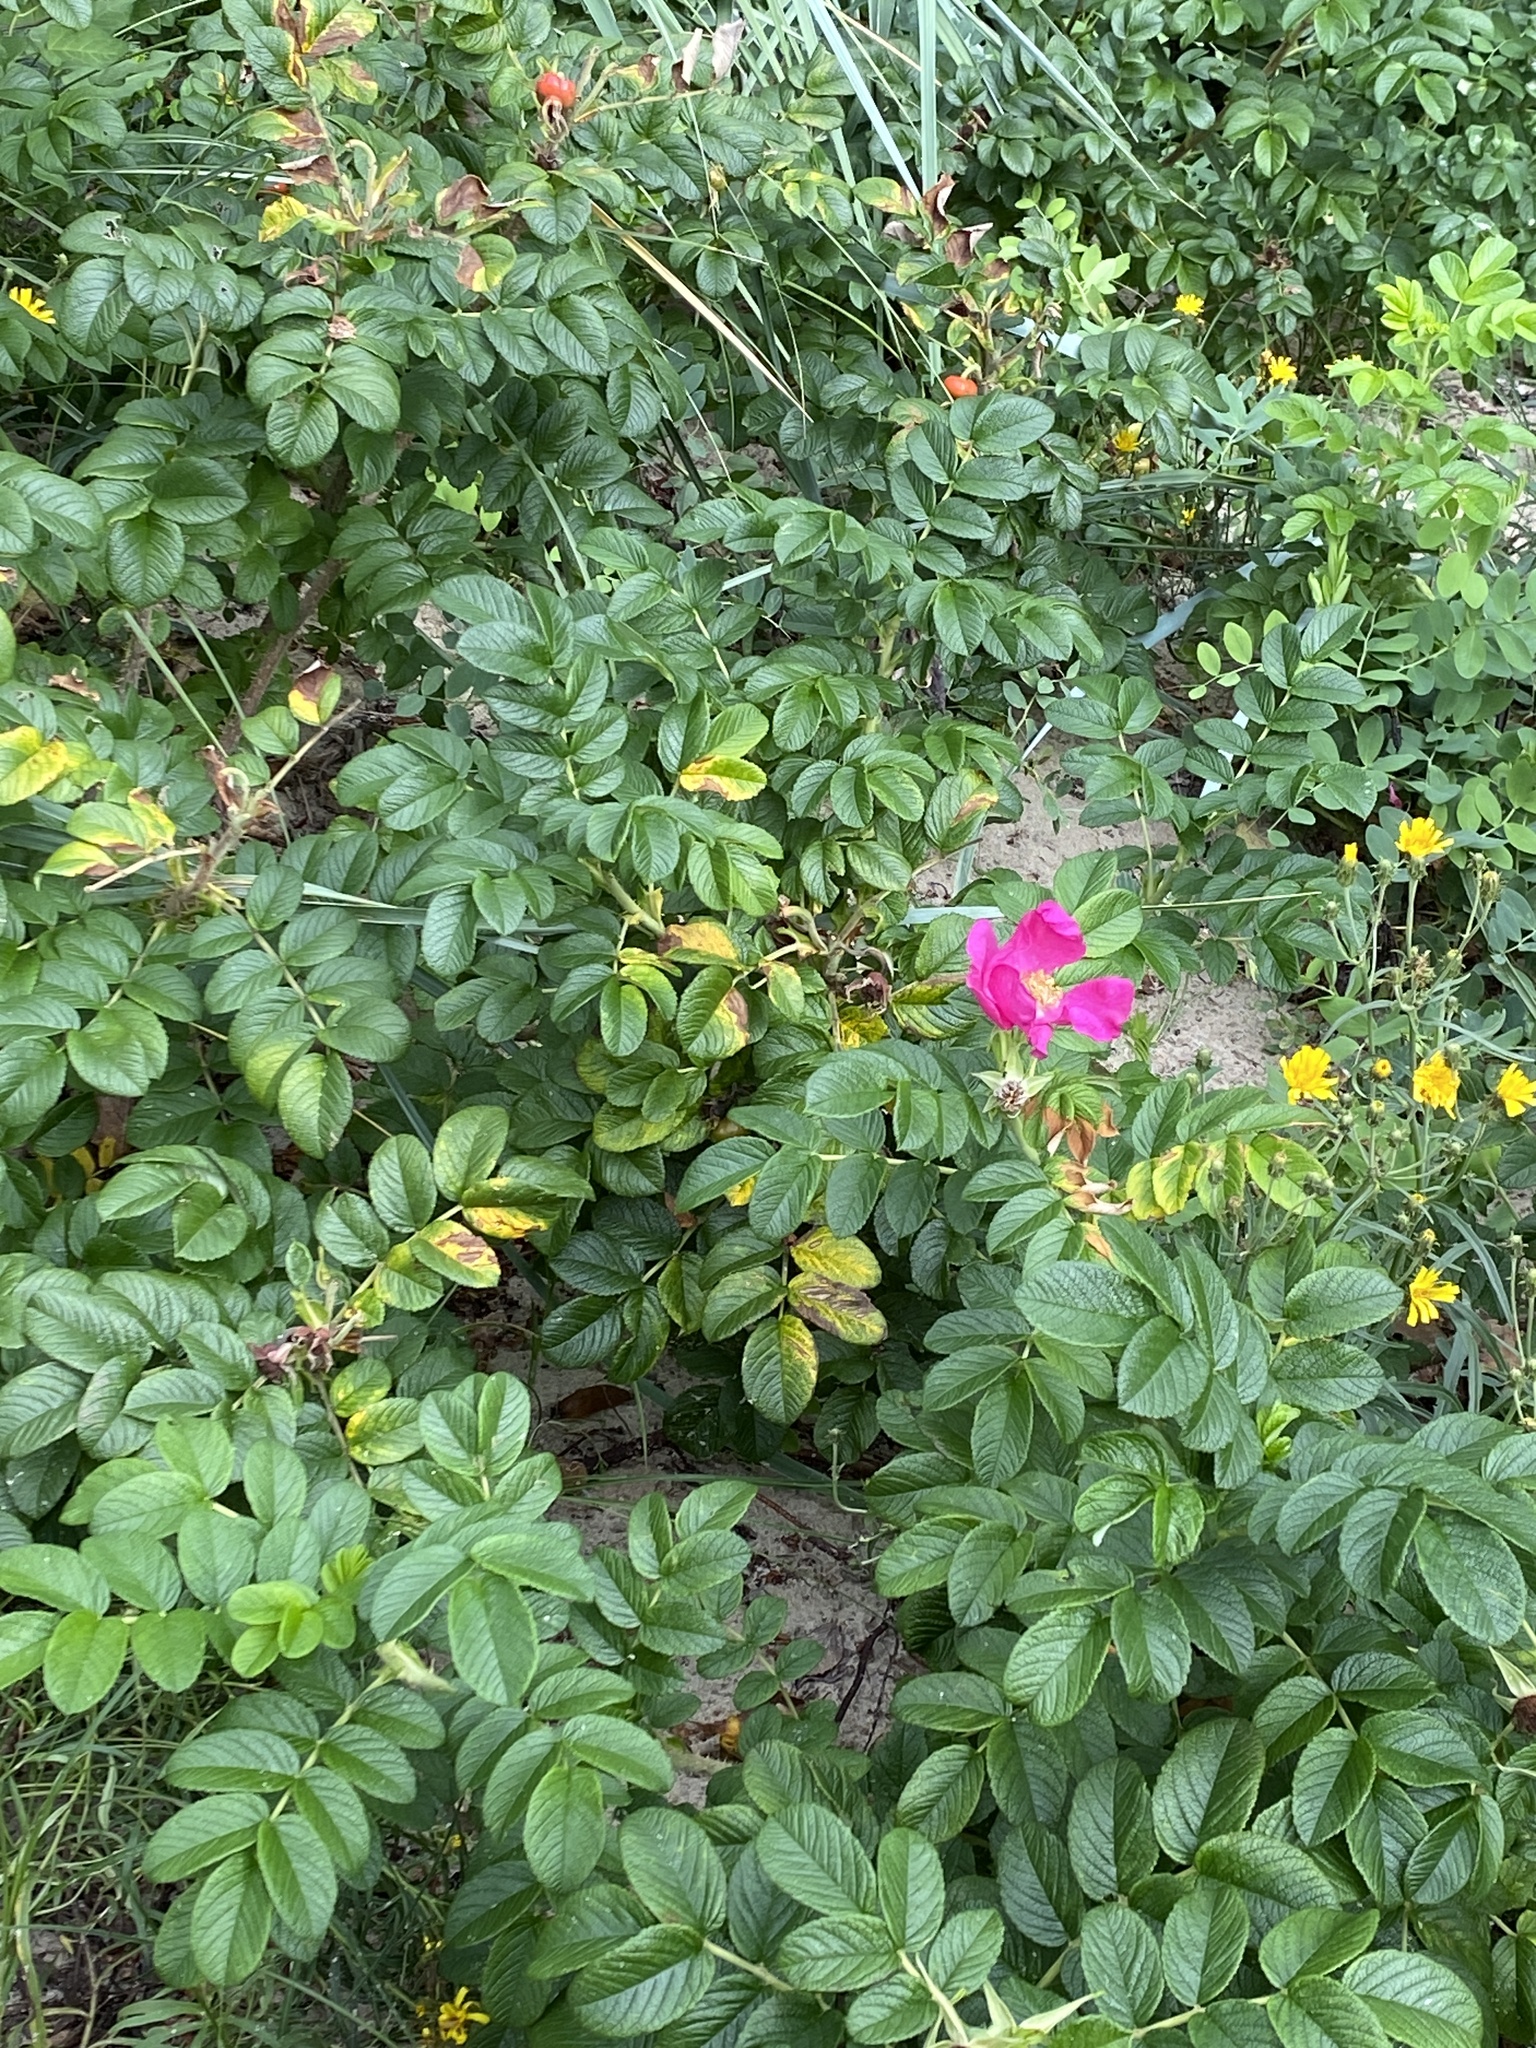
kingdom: Plantae
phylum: Tracheophyta
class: Magnoliopsida
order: Rosales
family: Rosaceae
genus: Rosa
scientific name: Rosa rugosa
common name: Japanese rose
